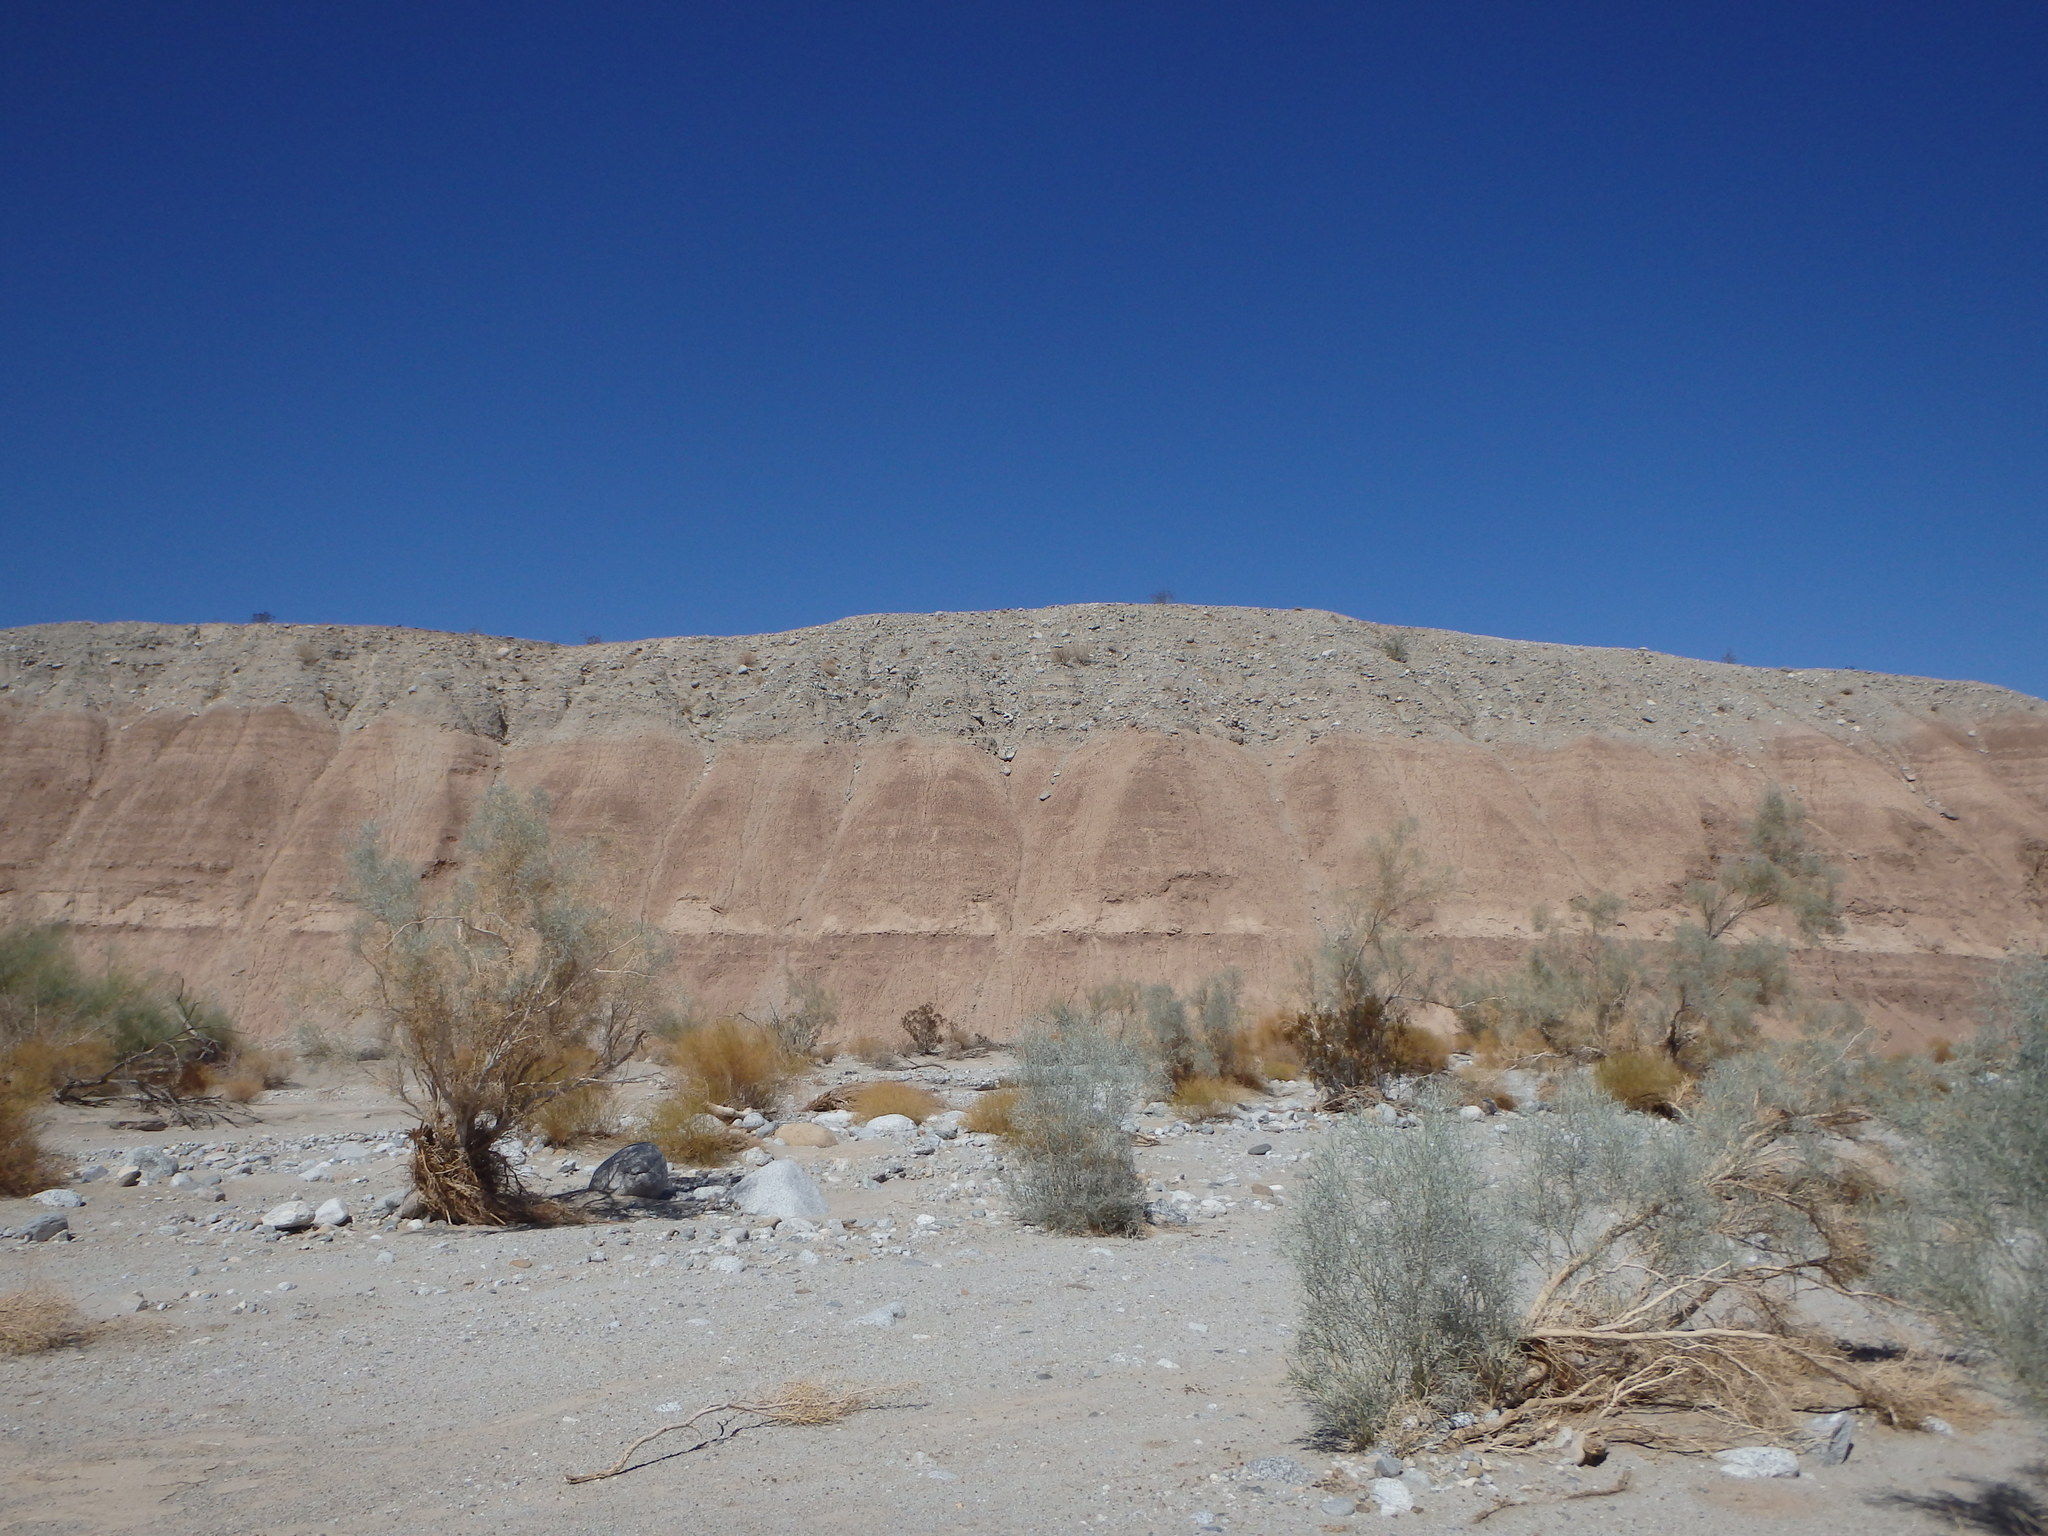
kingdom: Plantae
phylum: Tracheophyta
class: Magnoliopsida
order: Fabales
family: Fabaceae
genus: Psorothamnus
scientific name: Psorothamnus spinosus
